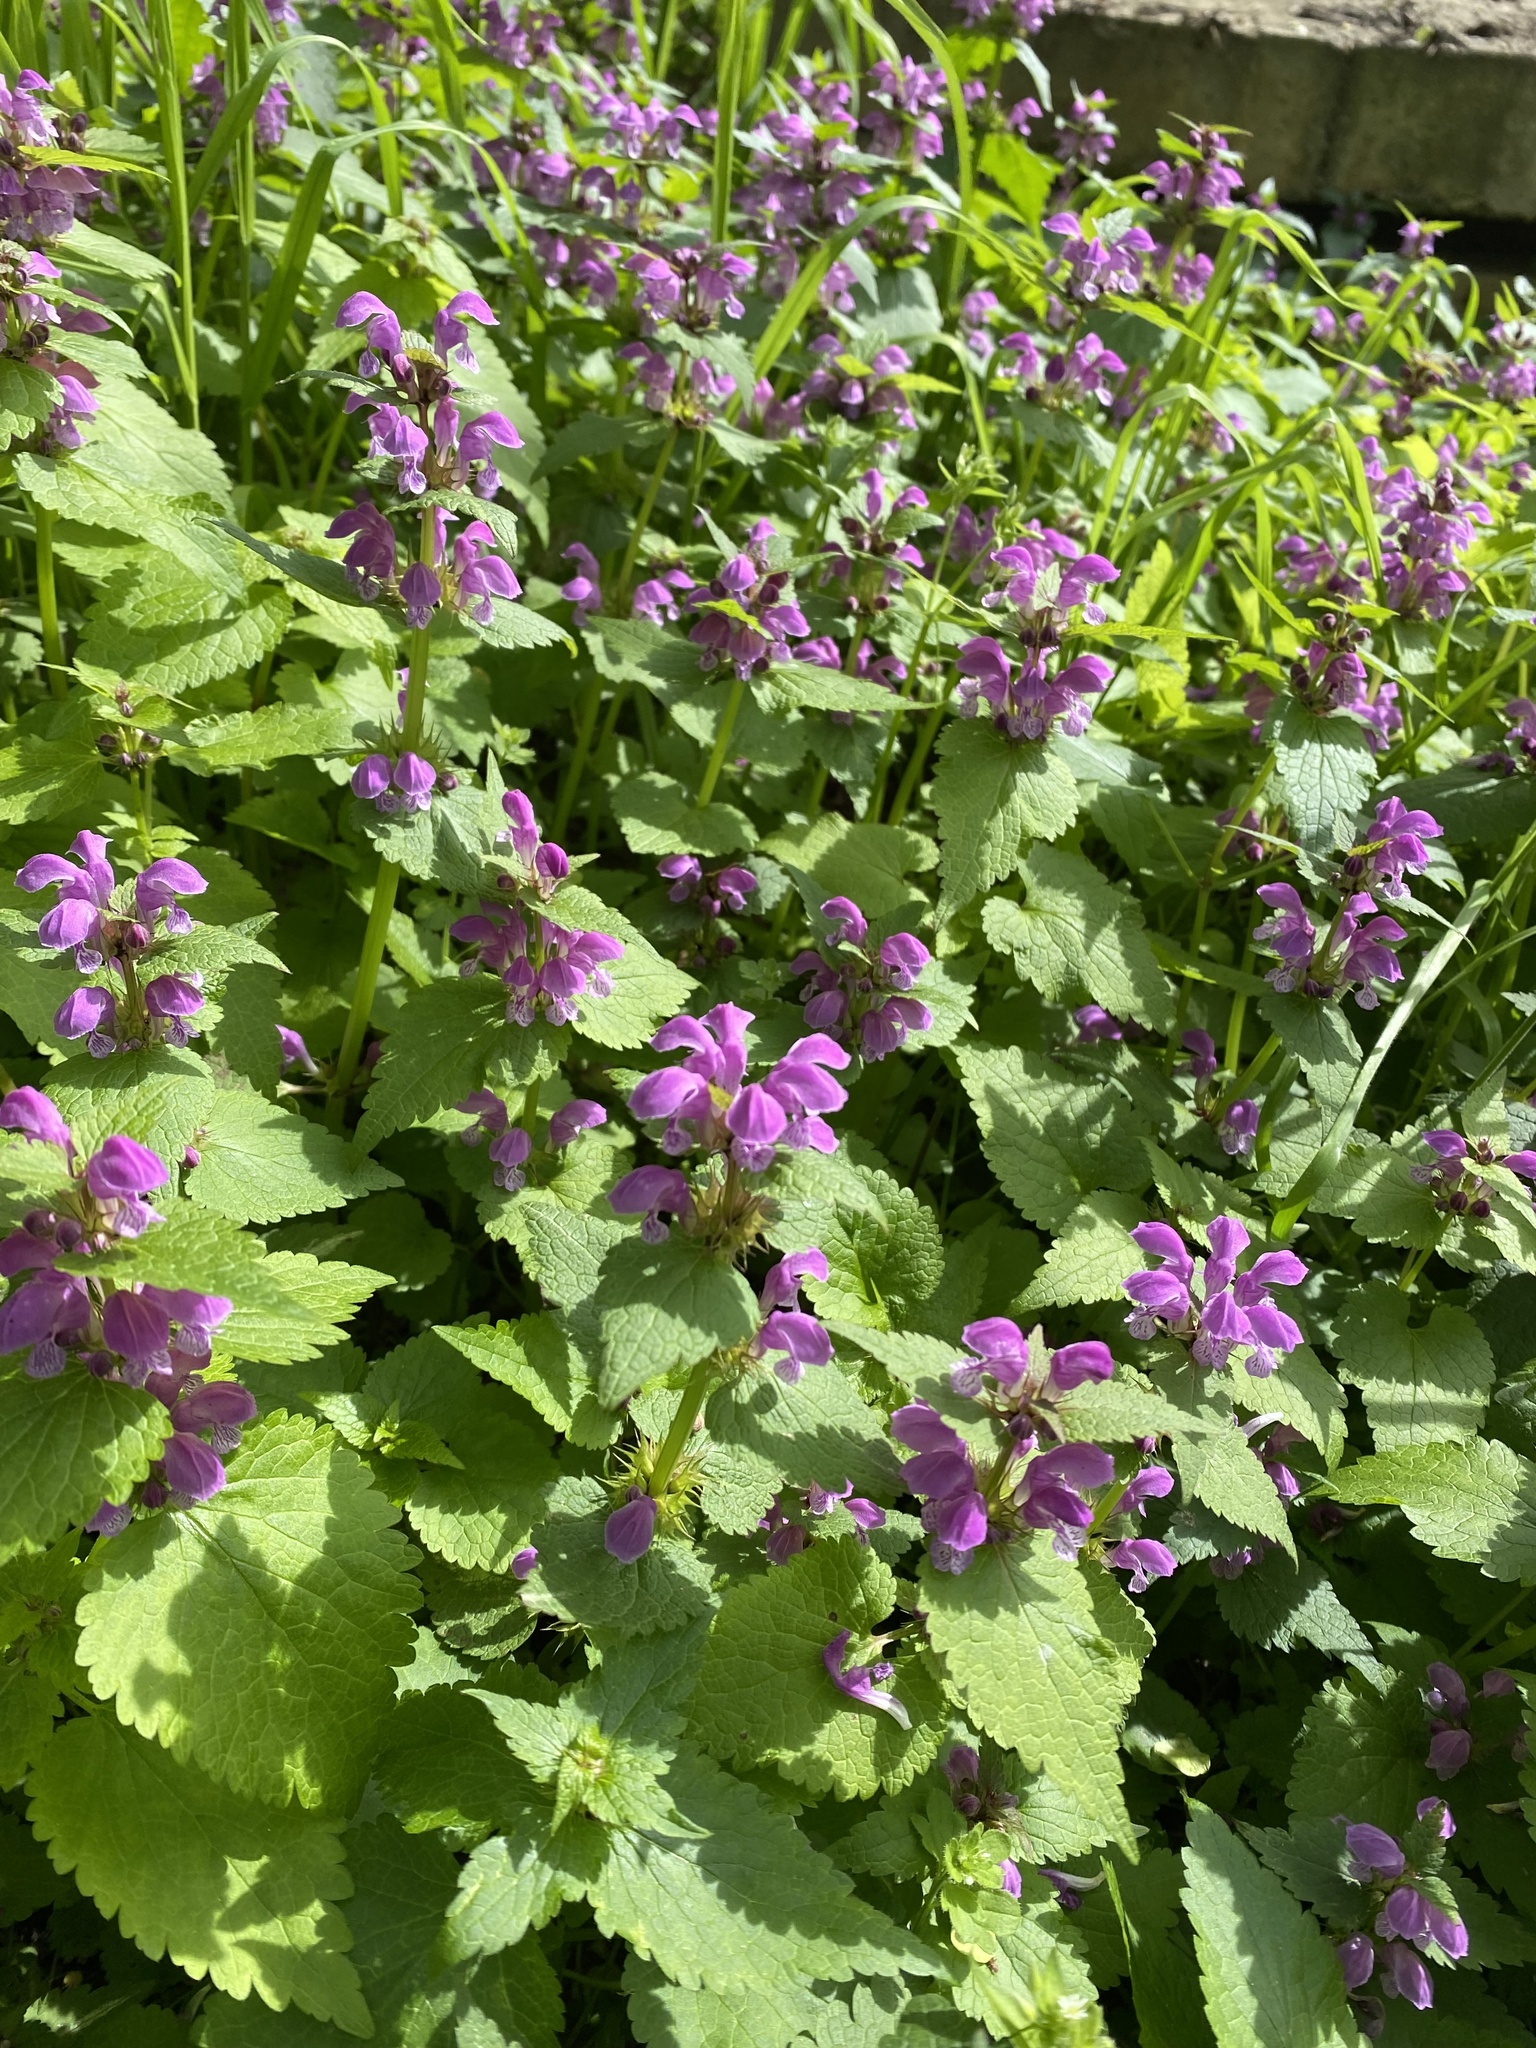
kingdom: Plantae
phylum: Tracheophyta
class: Magnoliopsida
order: Lamiales
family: Lamiaceae
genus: Lamium
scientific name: Lamium maculatum
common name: Spotted dead-nettle
